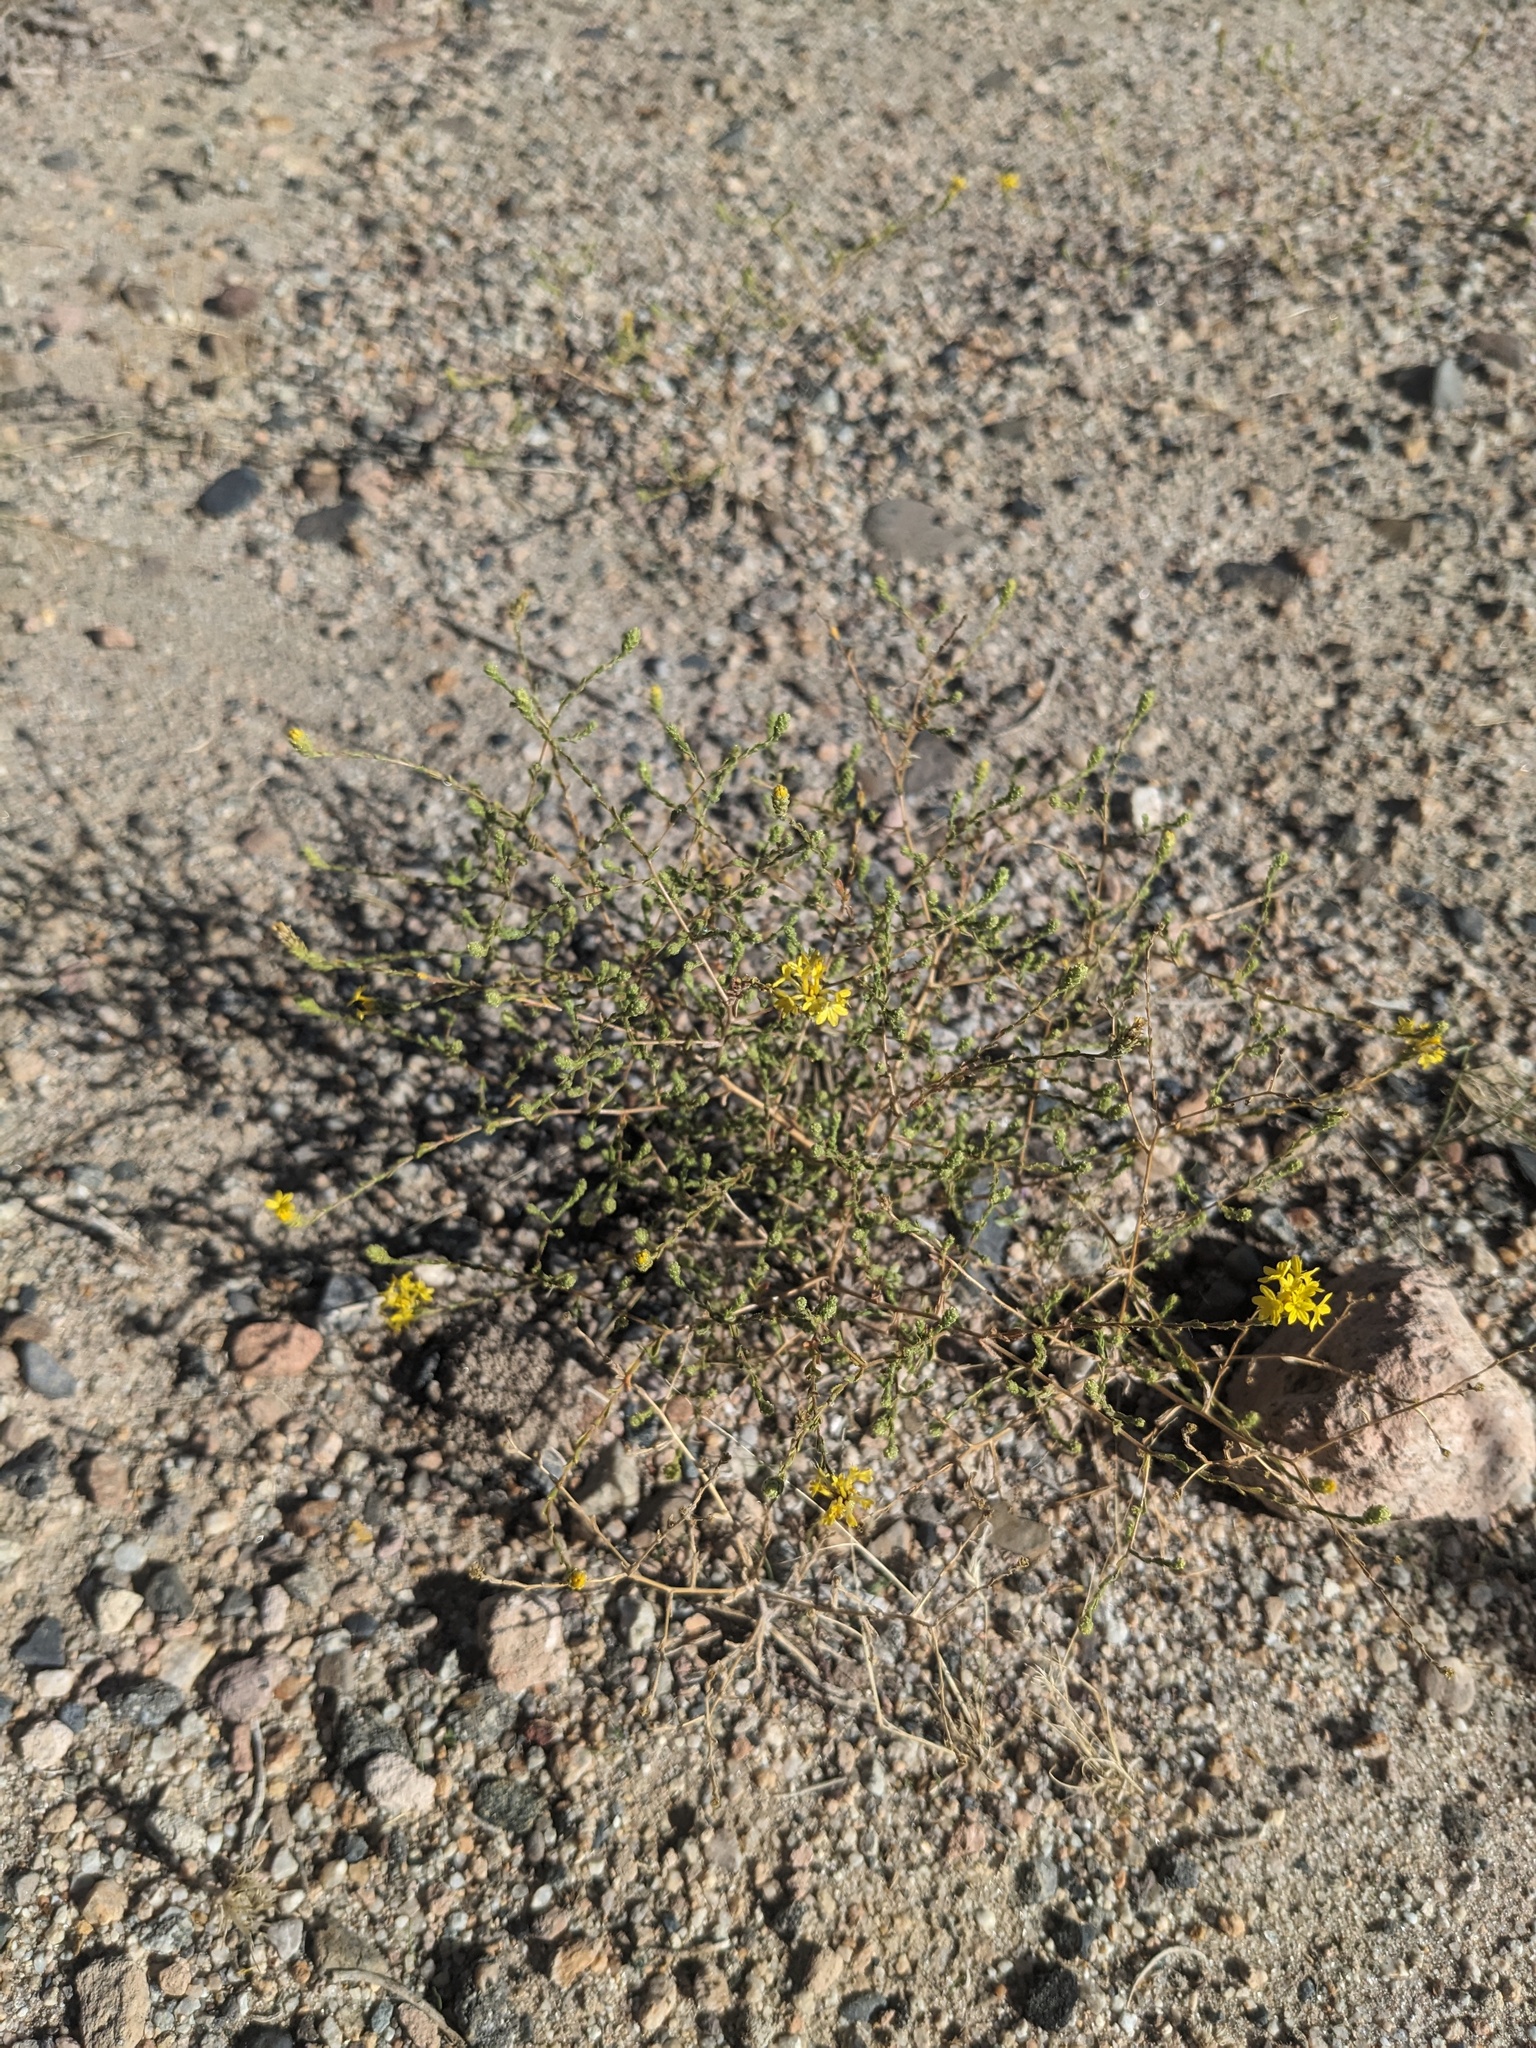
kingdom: Plantae
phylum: Tracheophyta
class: Magnoliopsida
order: Asterales
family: Asteraceae
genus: Lessingia
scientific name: Lessingia glandulifera
